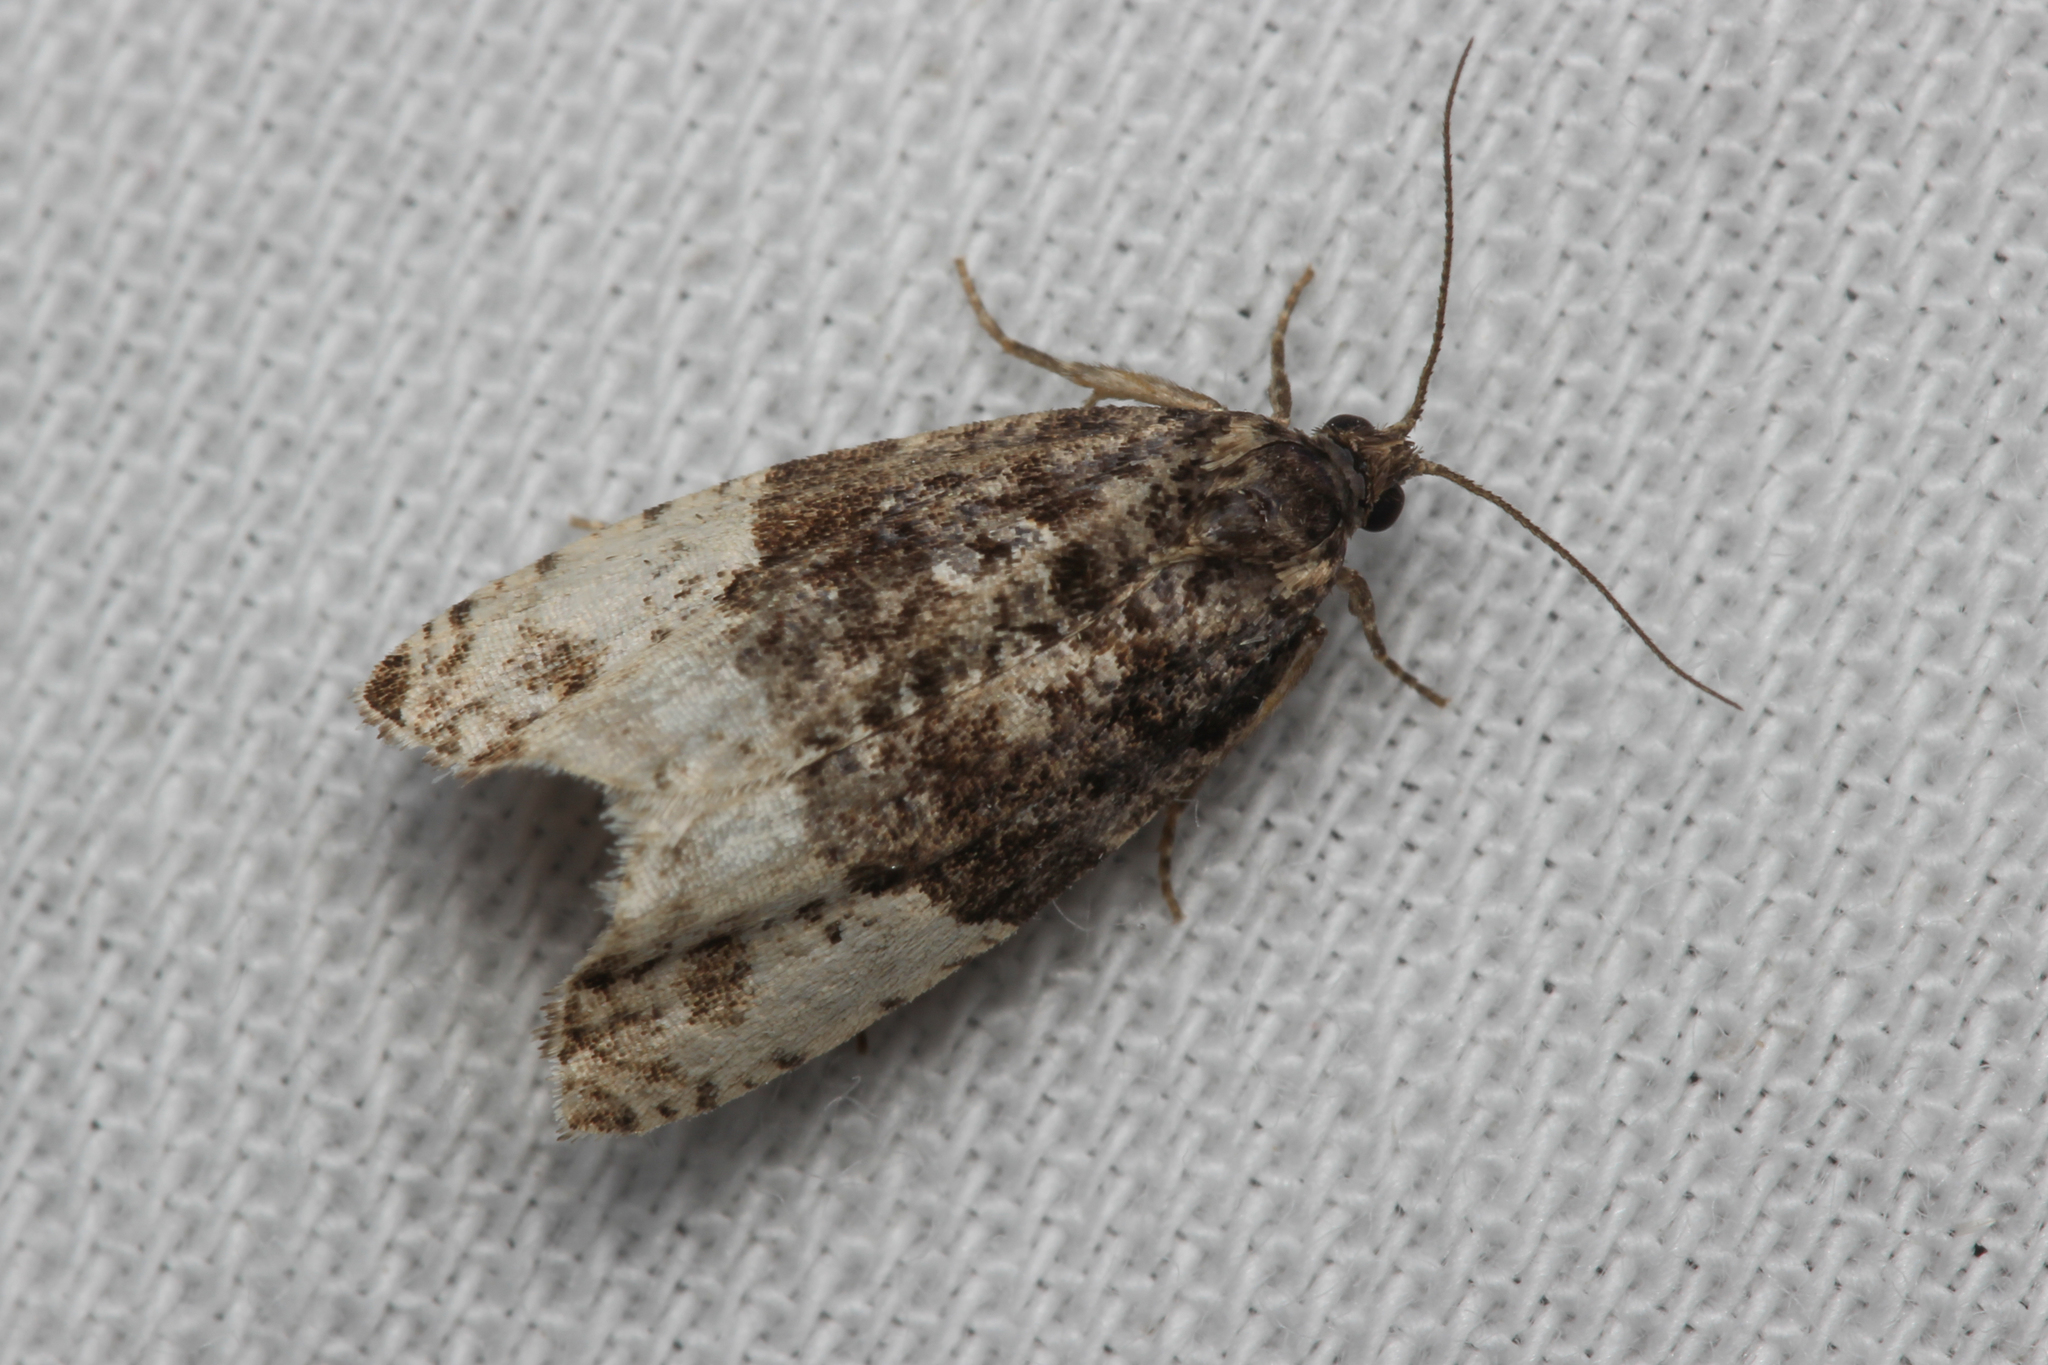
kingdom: Animalia
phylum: Arthropoda
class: Insecta
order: Lepidoptera
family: Tortricidae
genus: Hedya
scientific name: Hedya pruniana
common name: Plum tortrix
